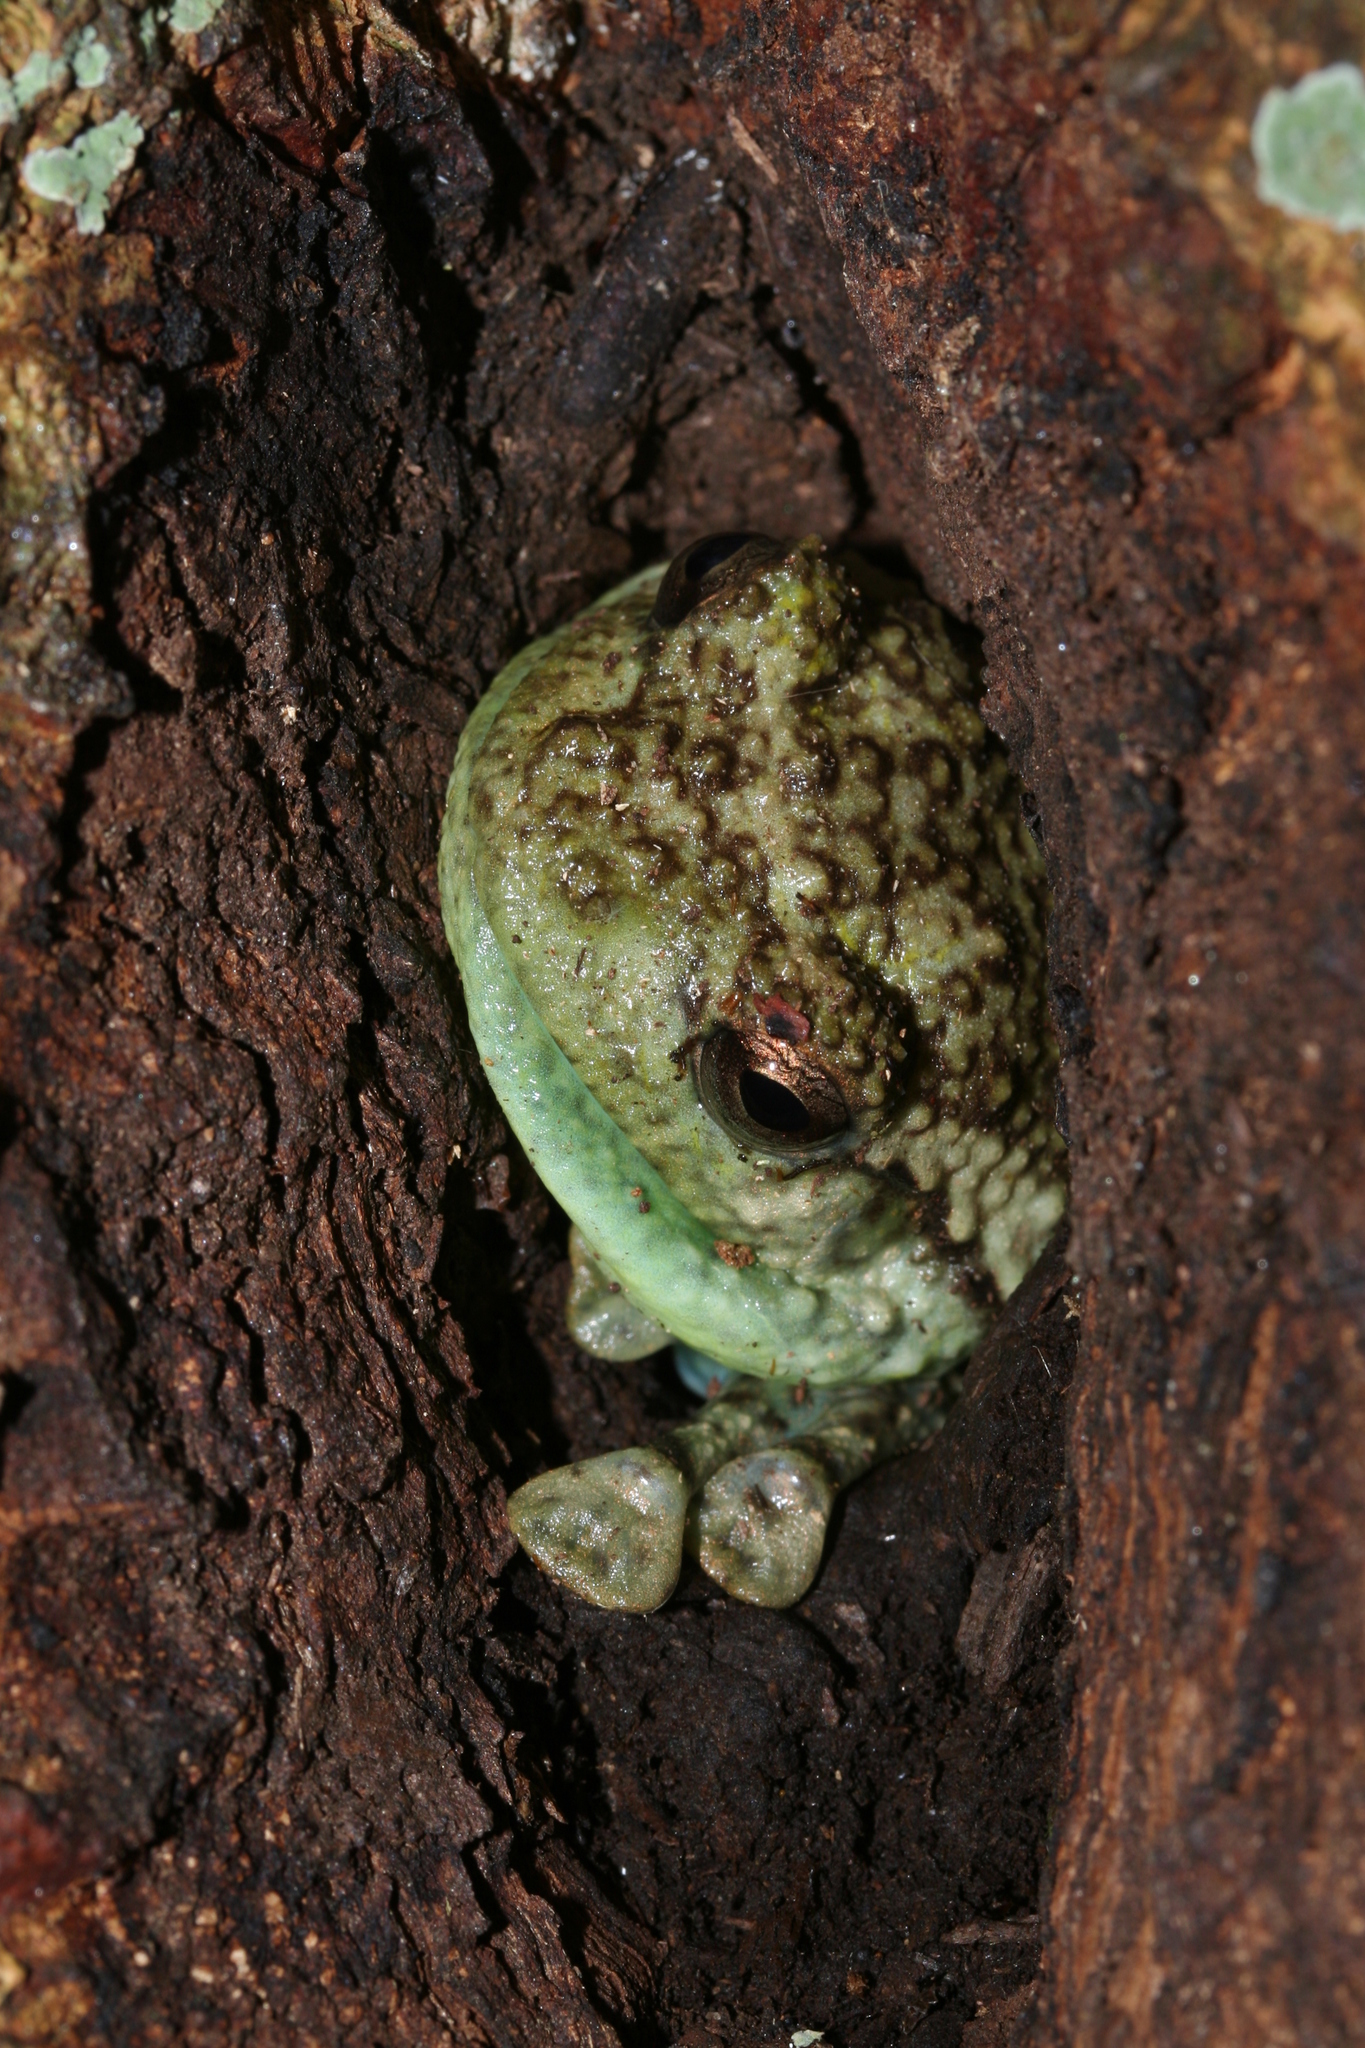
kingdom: Animalia
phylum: Chordata
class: Amphibia
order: Anura
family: Microhylidae
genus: Cophyla
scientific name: Cophyla grandis
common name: Boulenger's giant treefrog
